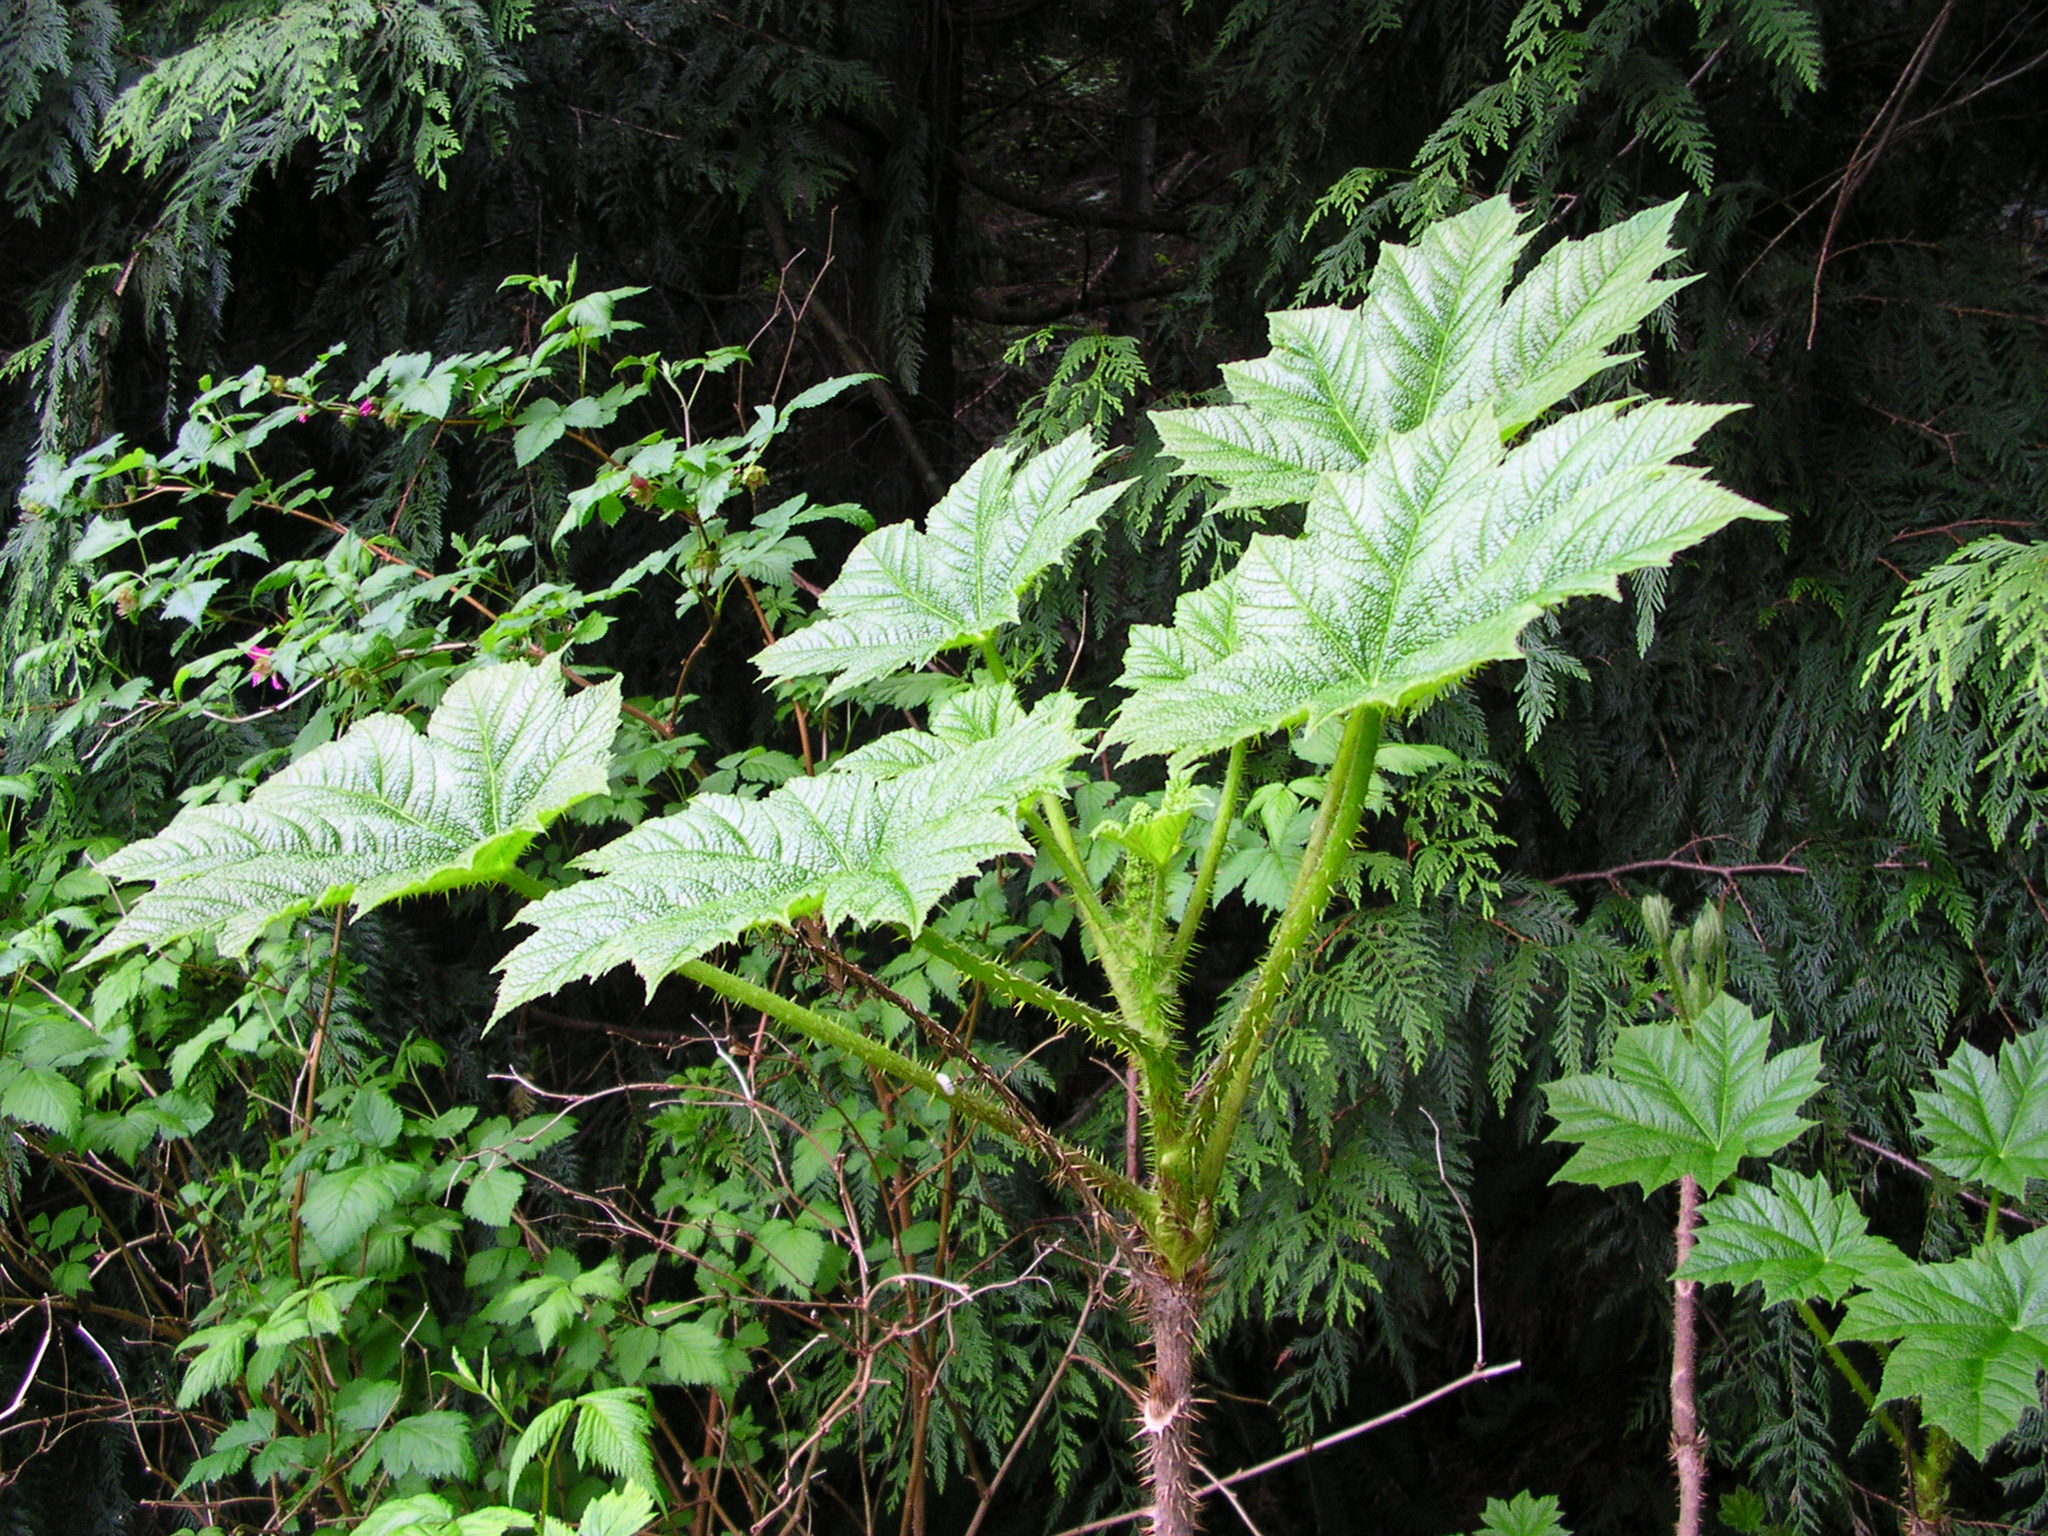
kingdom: Plantae
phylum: Tracheophyta
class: Magnoliopsida
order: Apiales
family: Araliaceae
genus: Oplopanax
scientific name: Oplopanax horridus
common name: Devil's walking-stick
